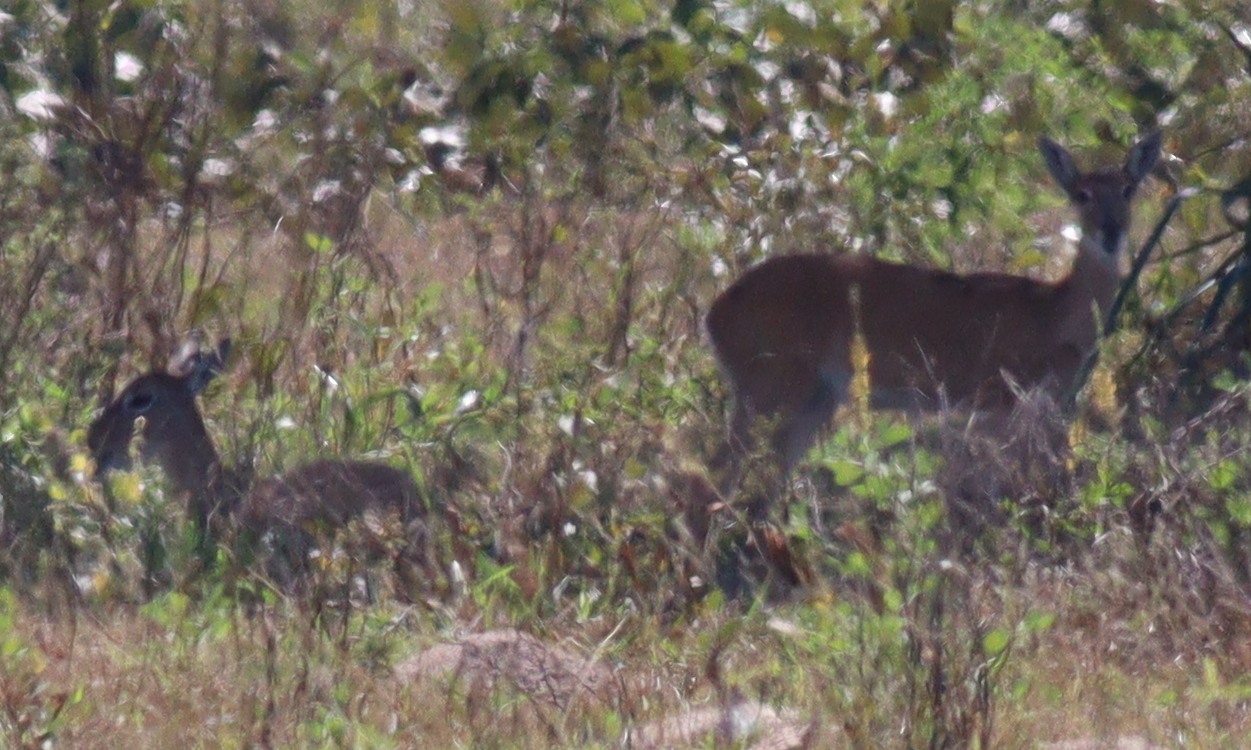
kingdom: Animalia
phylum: Chordata
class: Mammalia
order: Artiodactyla
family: Cervidae
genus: Ozotoceros
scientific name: Ozotoceros bezoarticus
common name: Pampas deer
